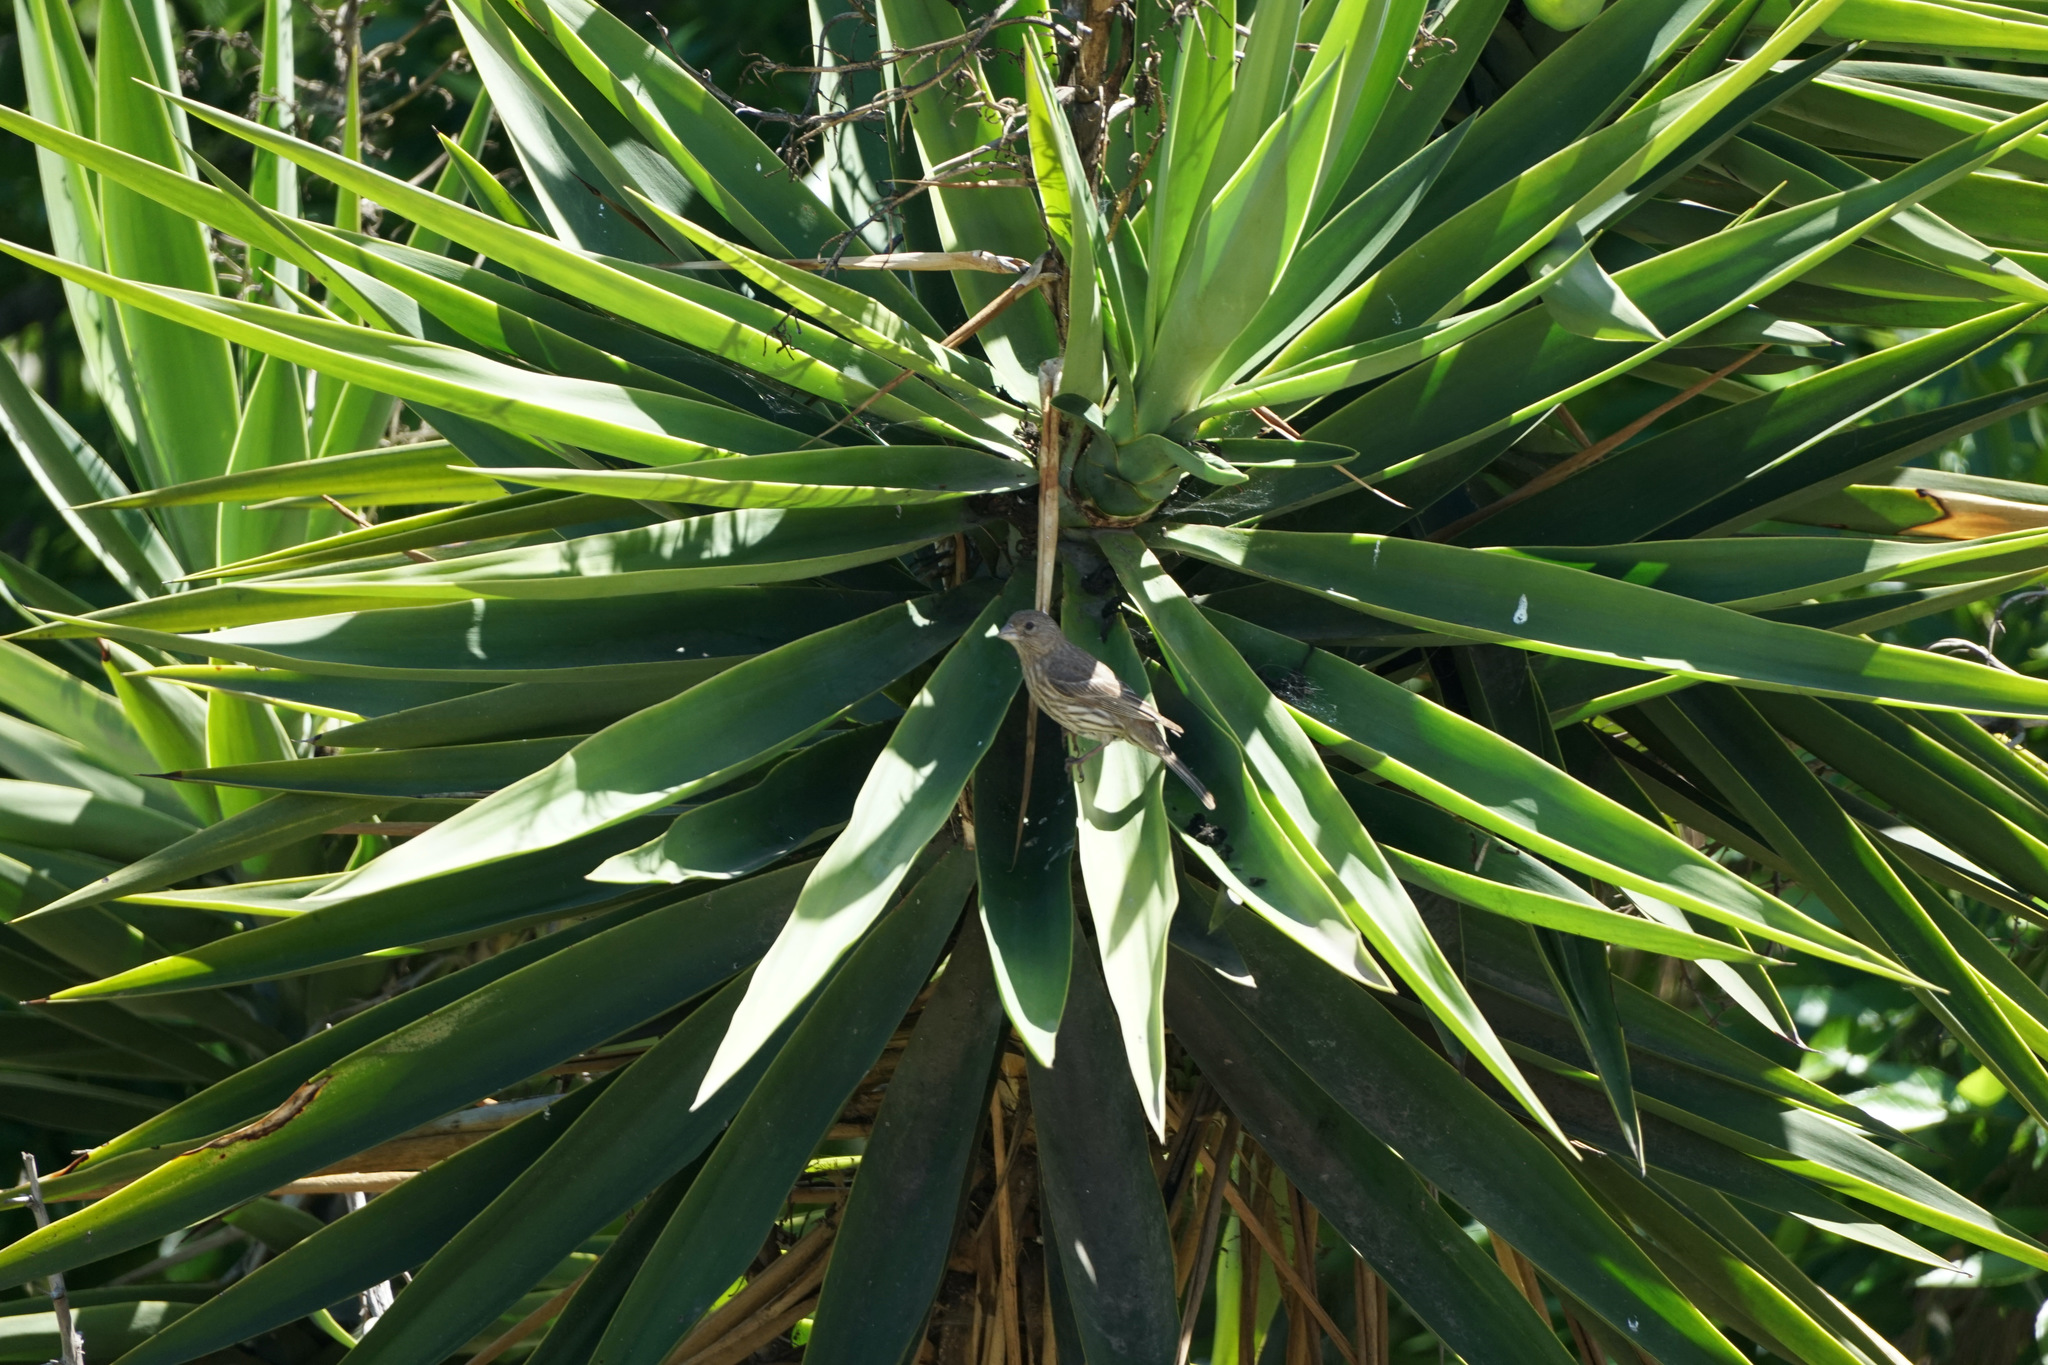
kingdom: Animalia
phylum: Chordata
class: Aves
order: Passeriformes
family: Fringillidae
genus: Haemorhous
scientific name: Haemorhous mexicanus
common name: House finch
